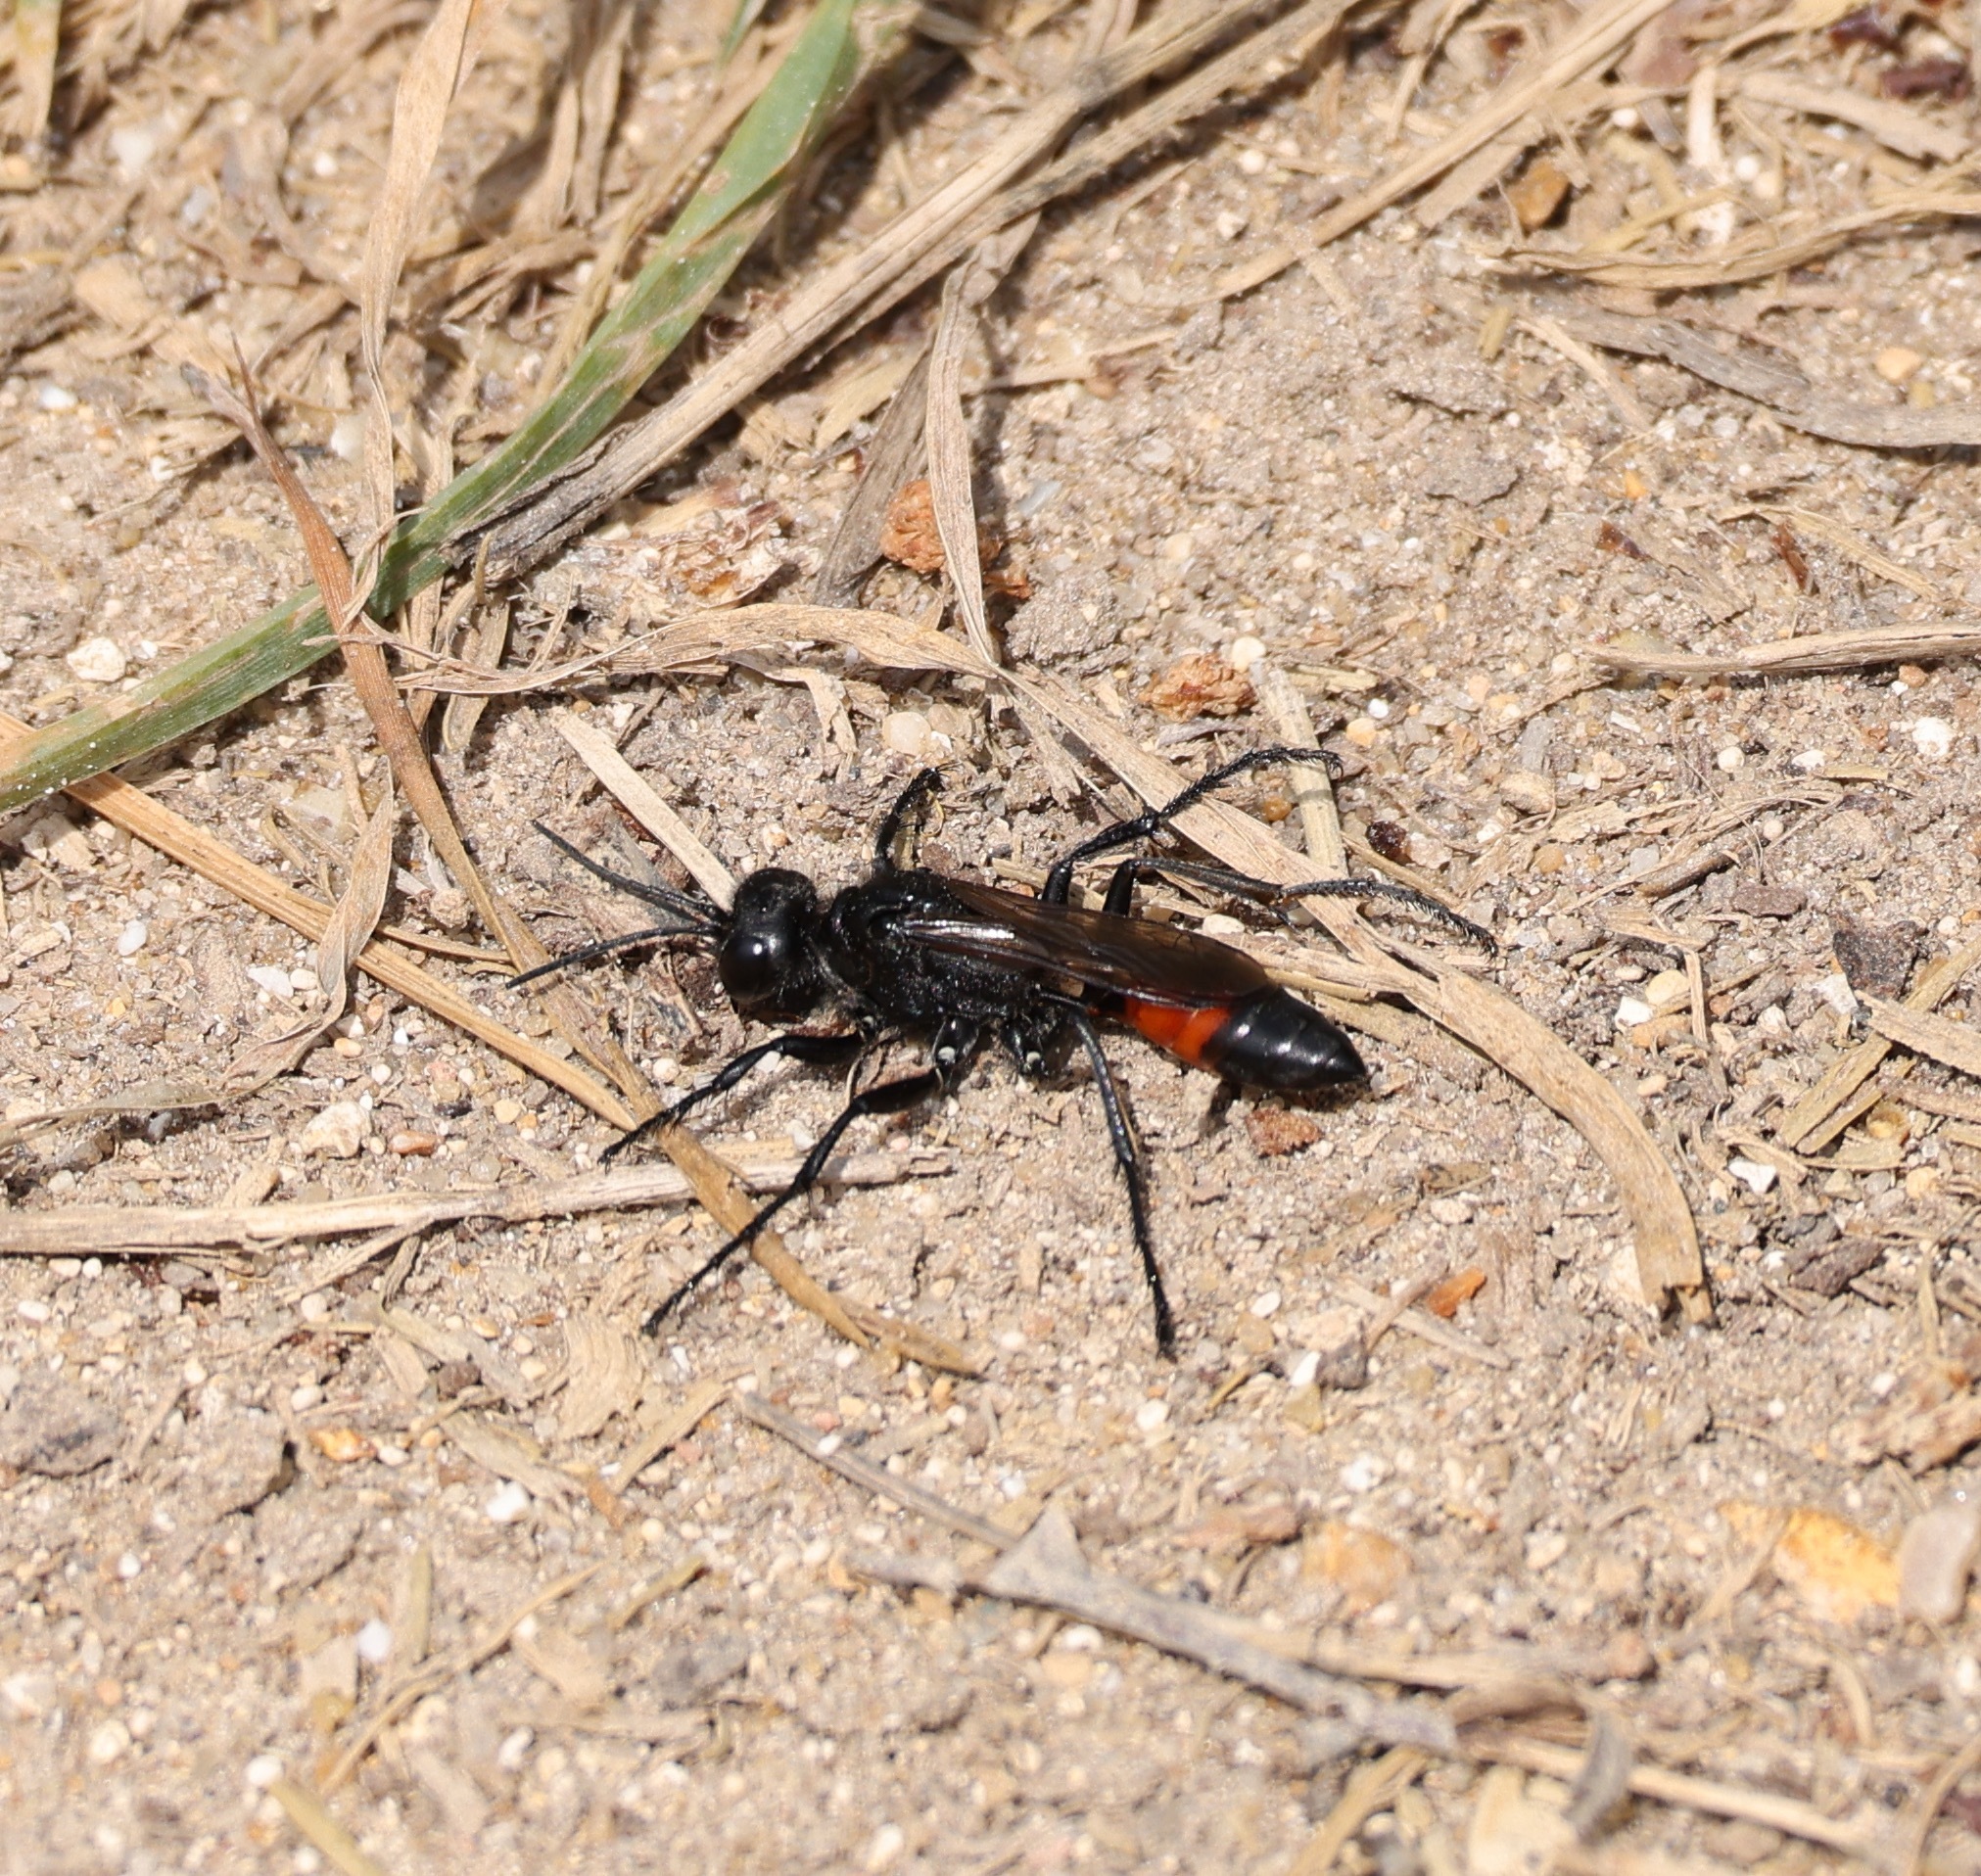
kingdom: Animalia
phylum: Arthropoda
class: Insecta
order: Hymenoptera
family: Sphecidae
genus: Podalonia
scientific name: Podalonia affinis
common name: Mud wasp
